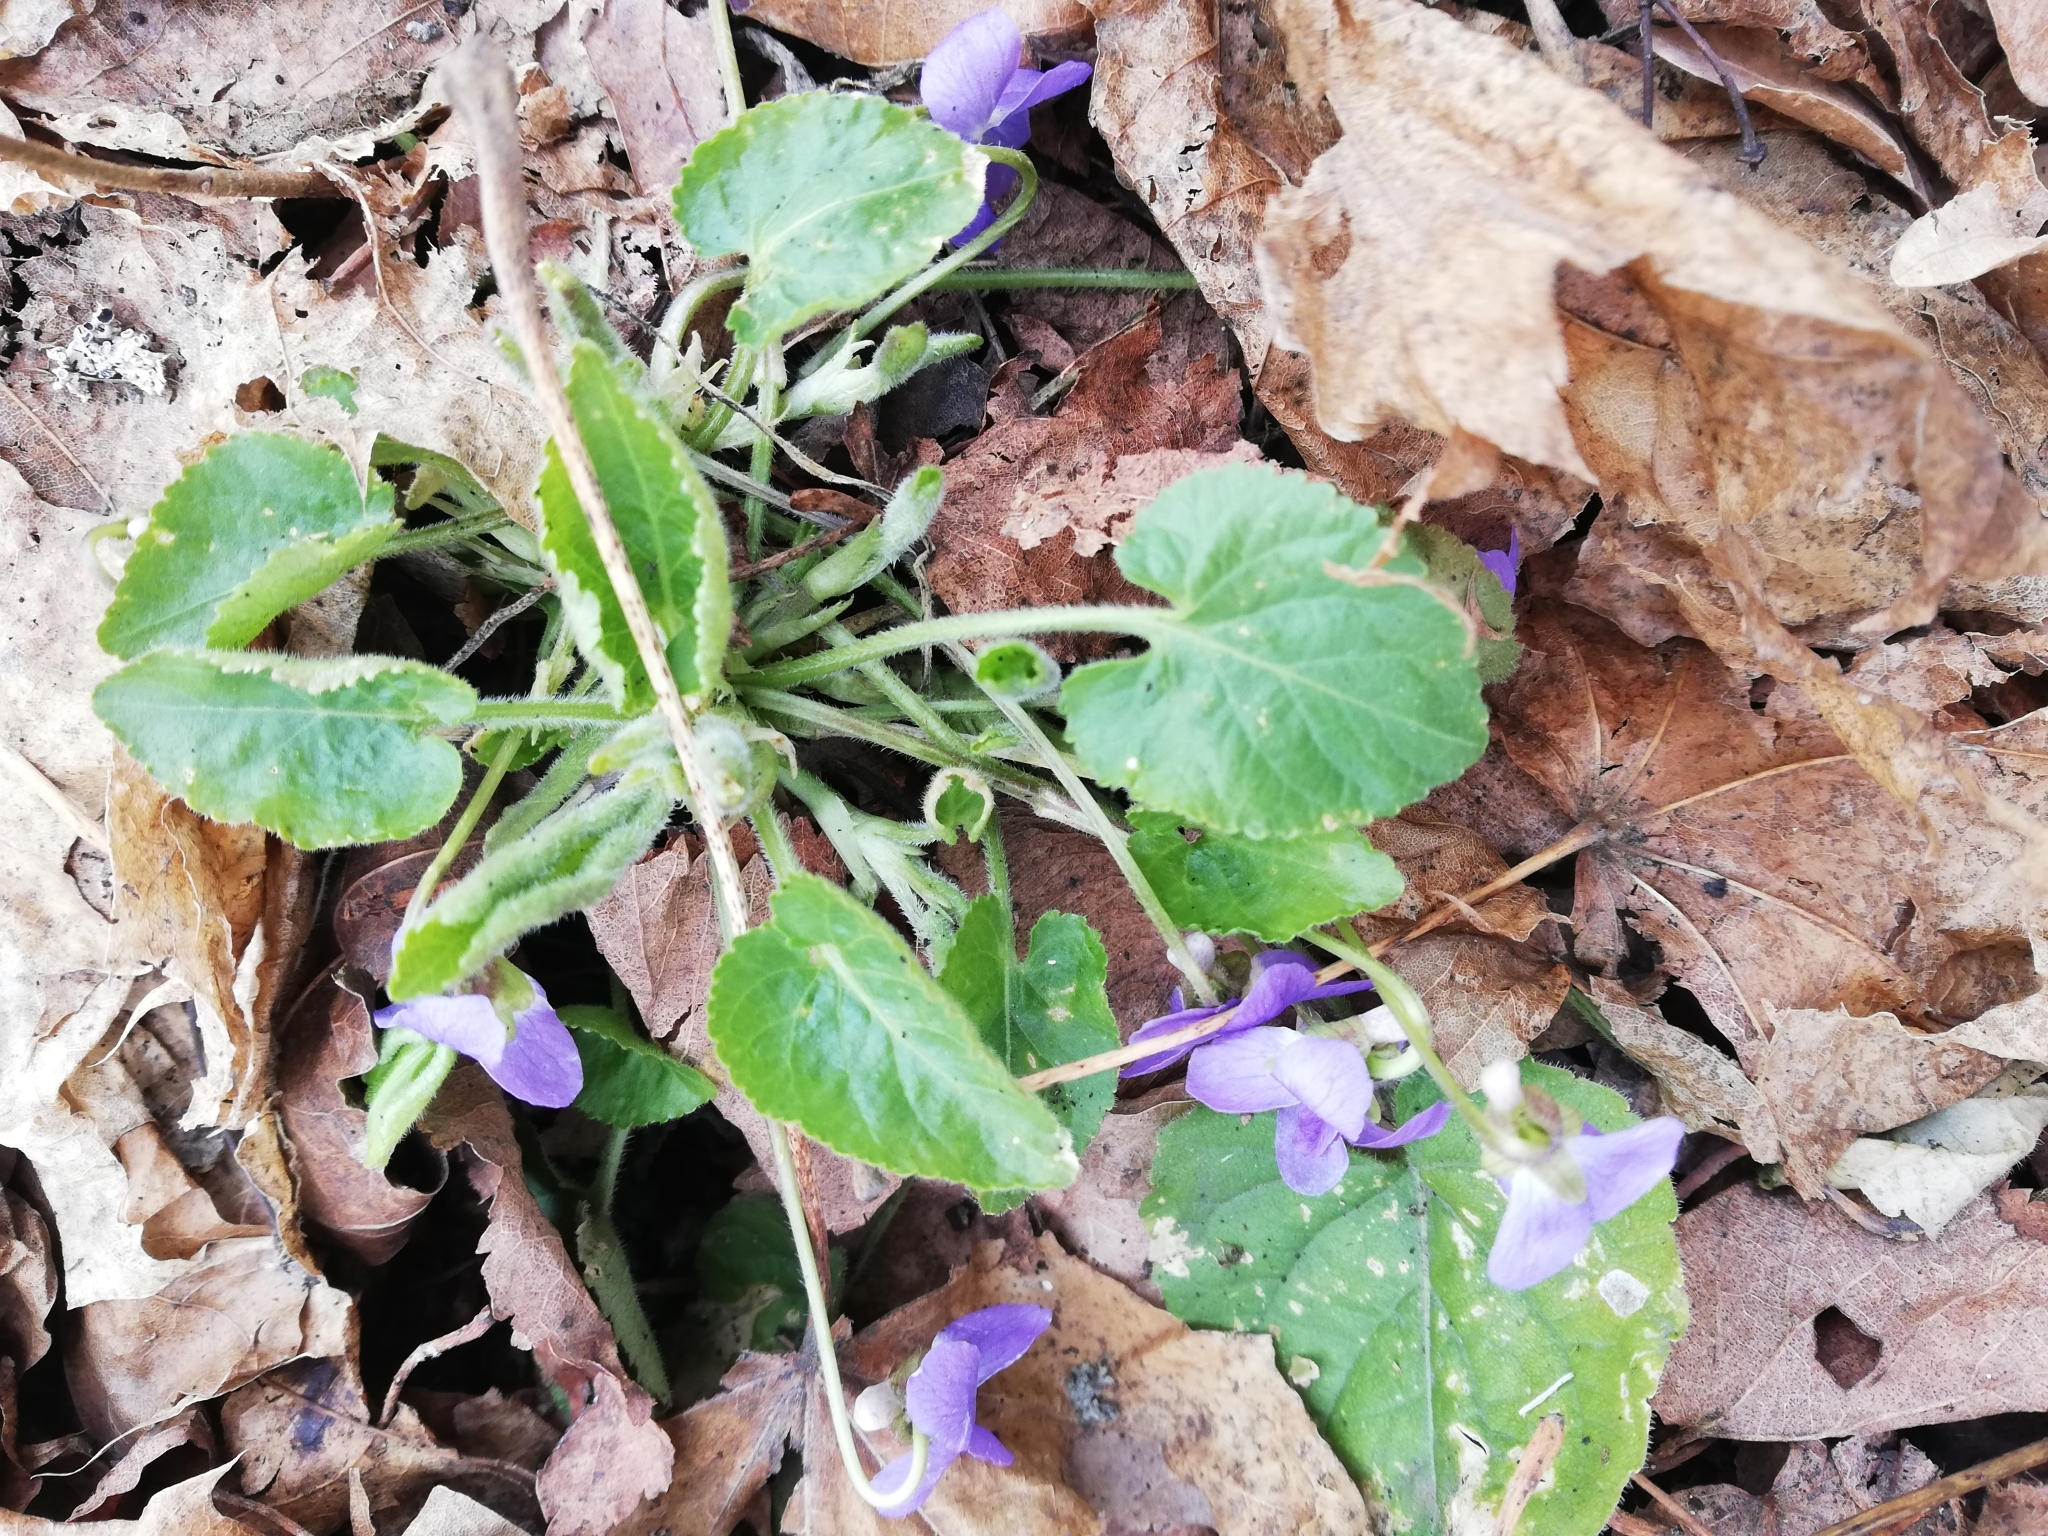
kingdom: Plantae
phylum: Tracheophyta
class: Magnoliopsida
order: Malpighiales
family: Violaceae
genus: Viola
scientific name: Viola collina
